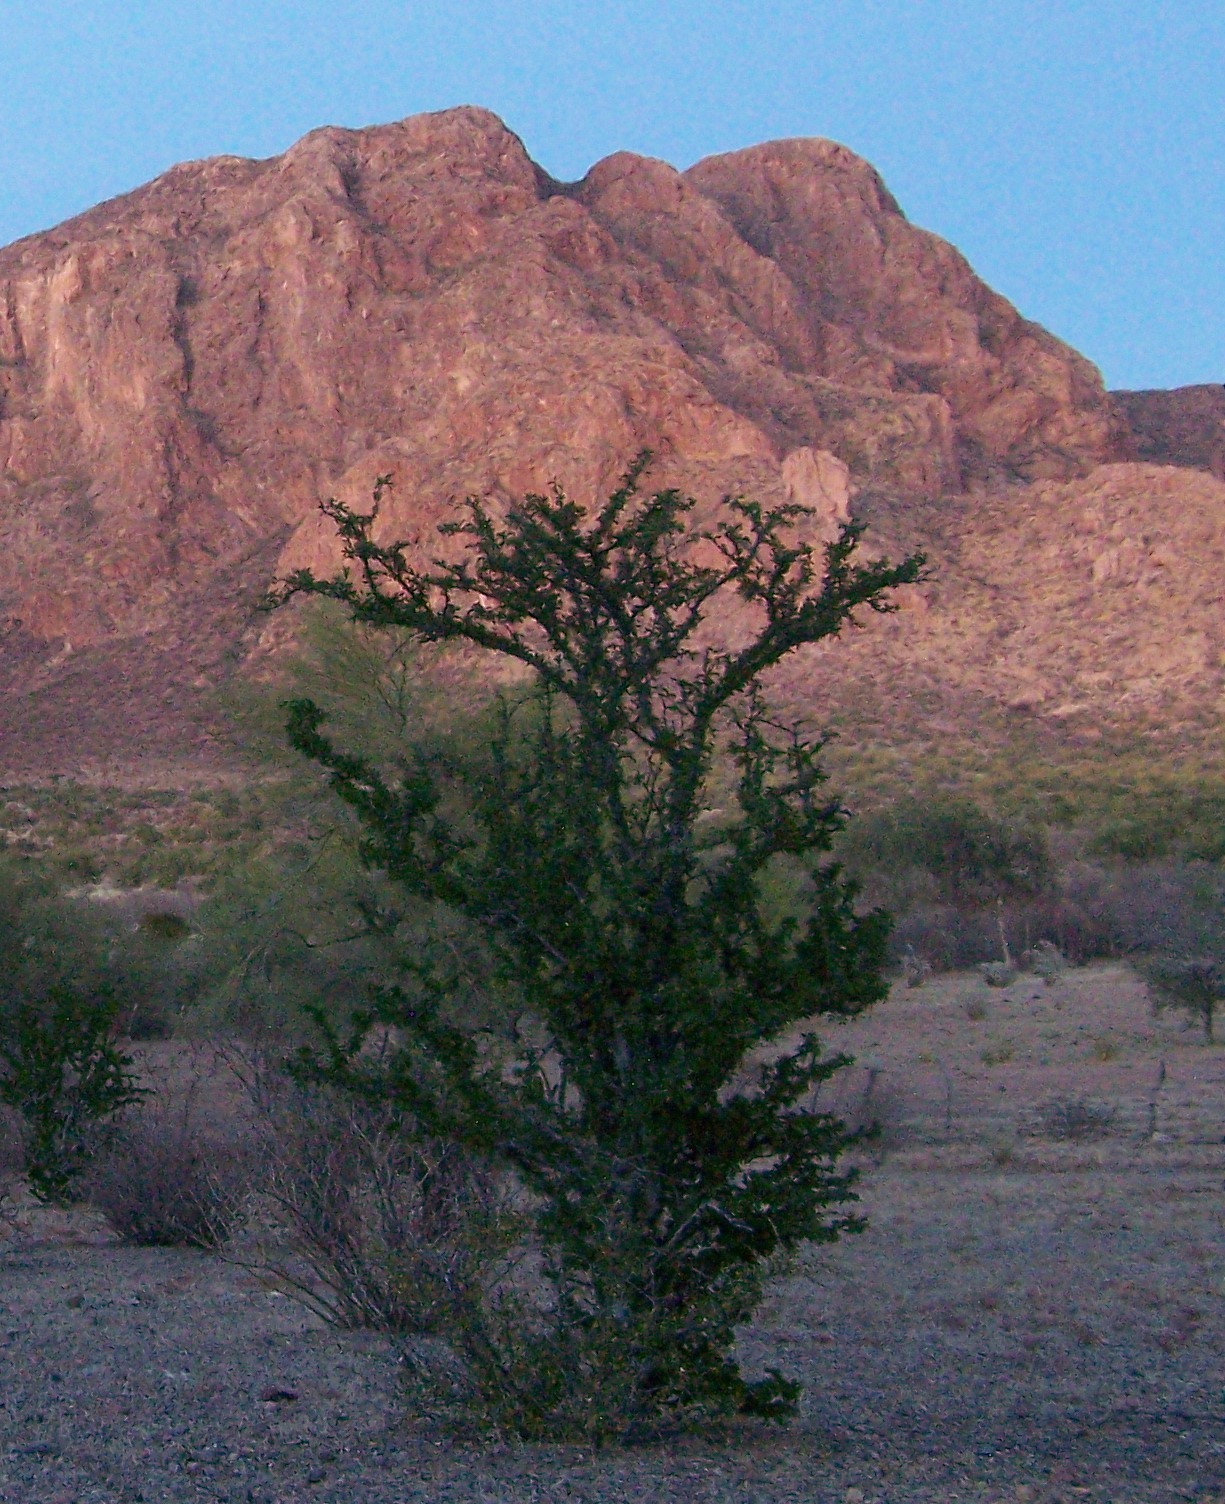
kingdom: Plantae
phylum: Tracheophyta
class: Magnoliopsida
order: Zygophyllales
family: Zygophyllaceae
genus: Guaiacum
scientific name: Guaiacum coulteri
